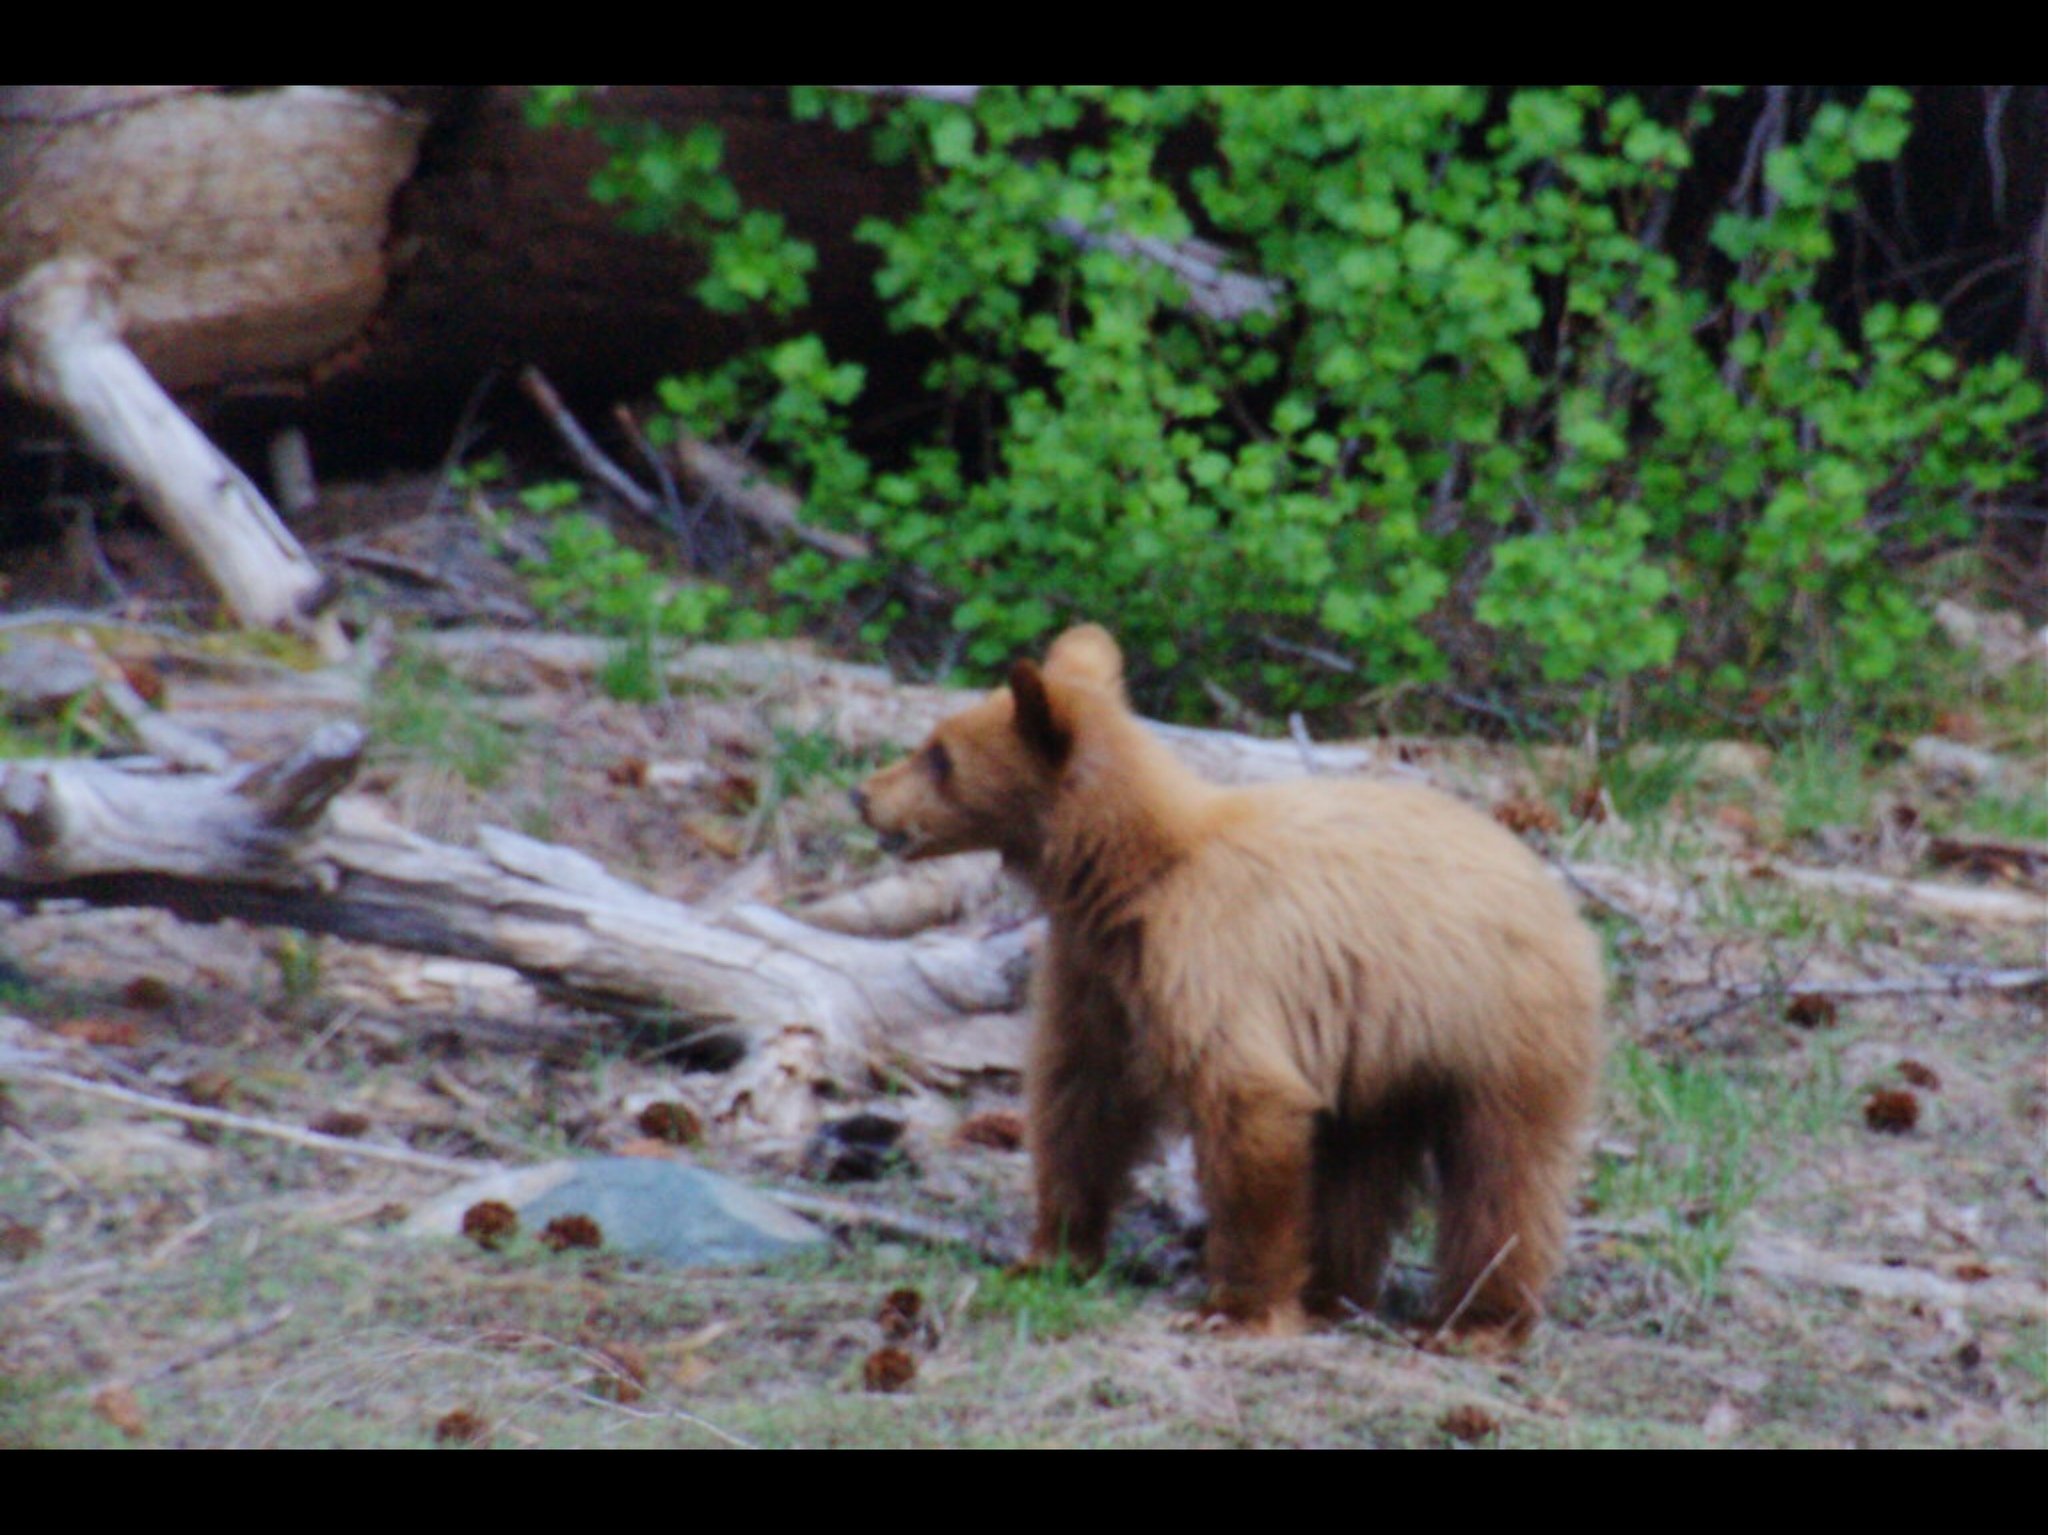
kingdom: Animalia
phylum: Chordata
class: Mammalia
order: Carnivora
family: Ursidae
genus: Ursus
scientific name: Ursus americanus
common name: American black bear
